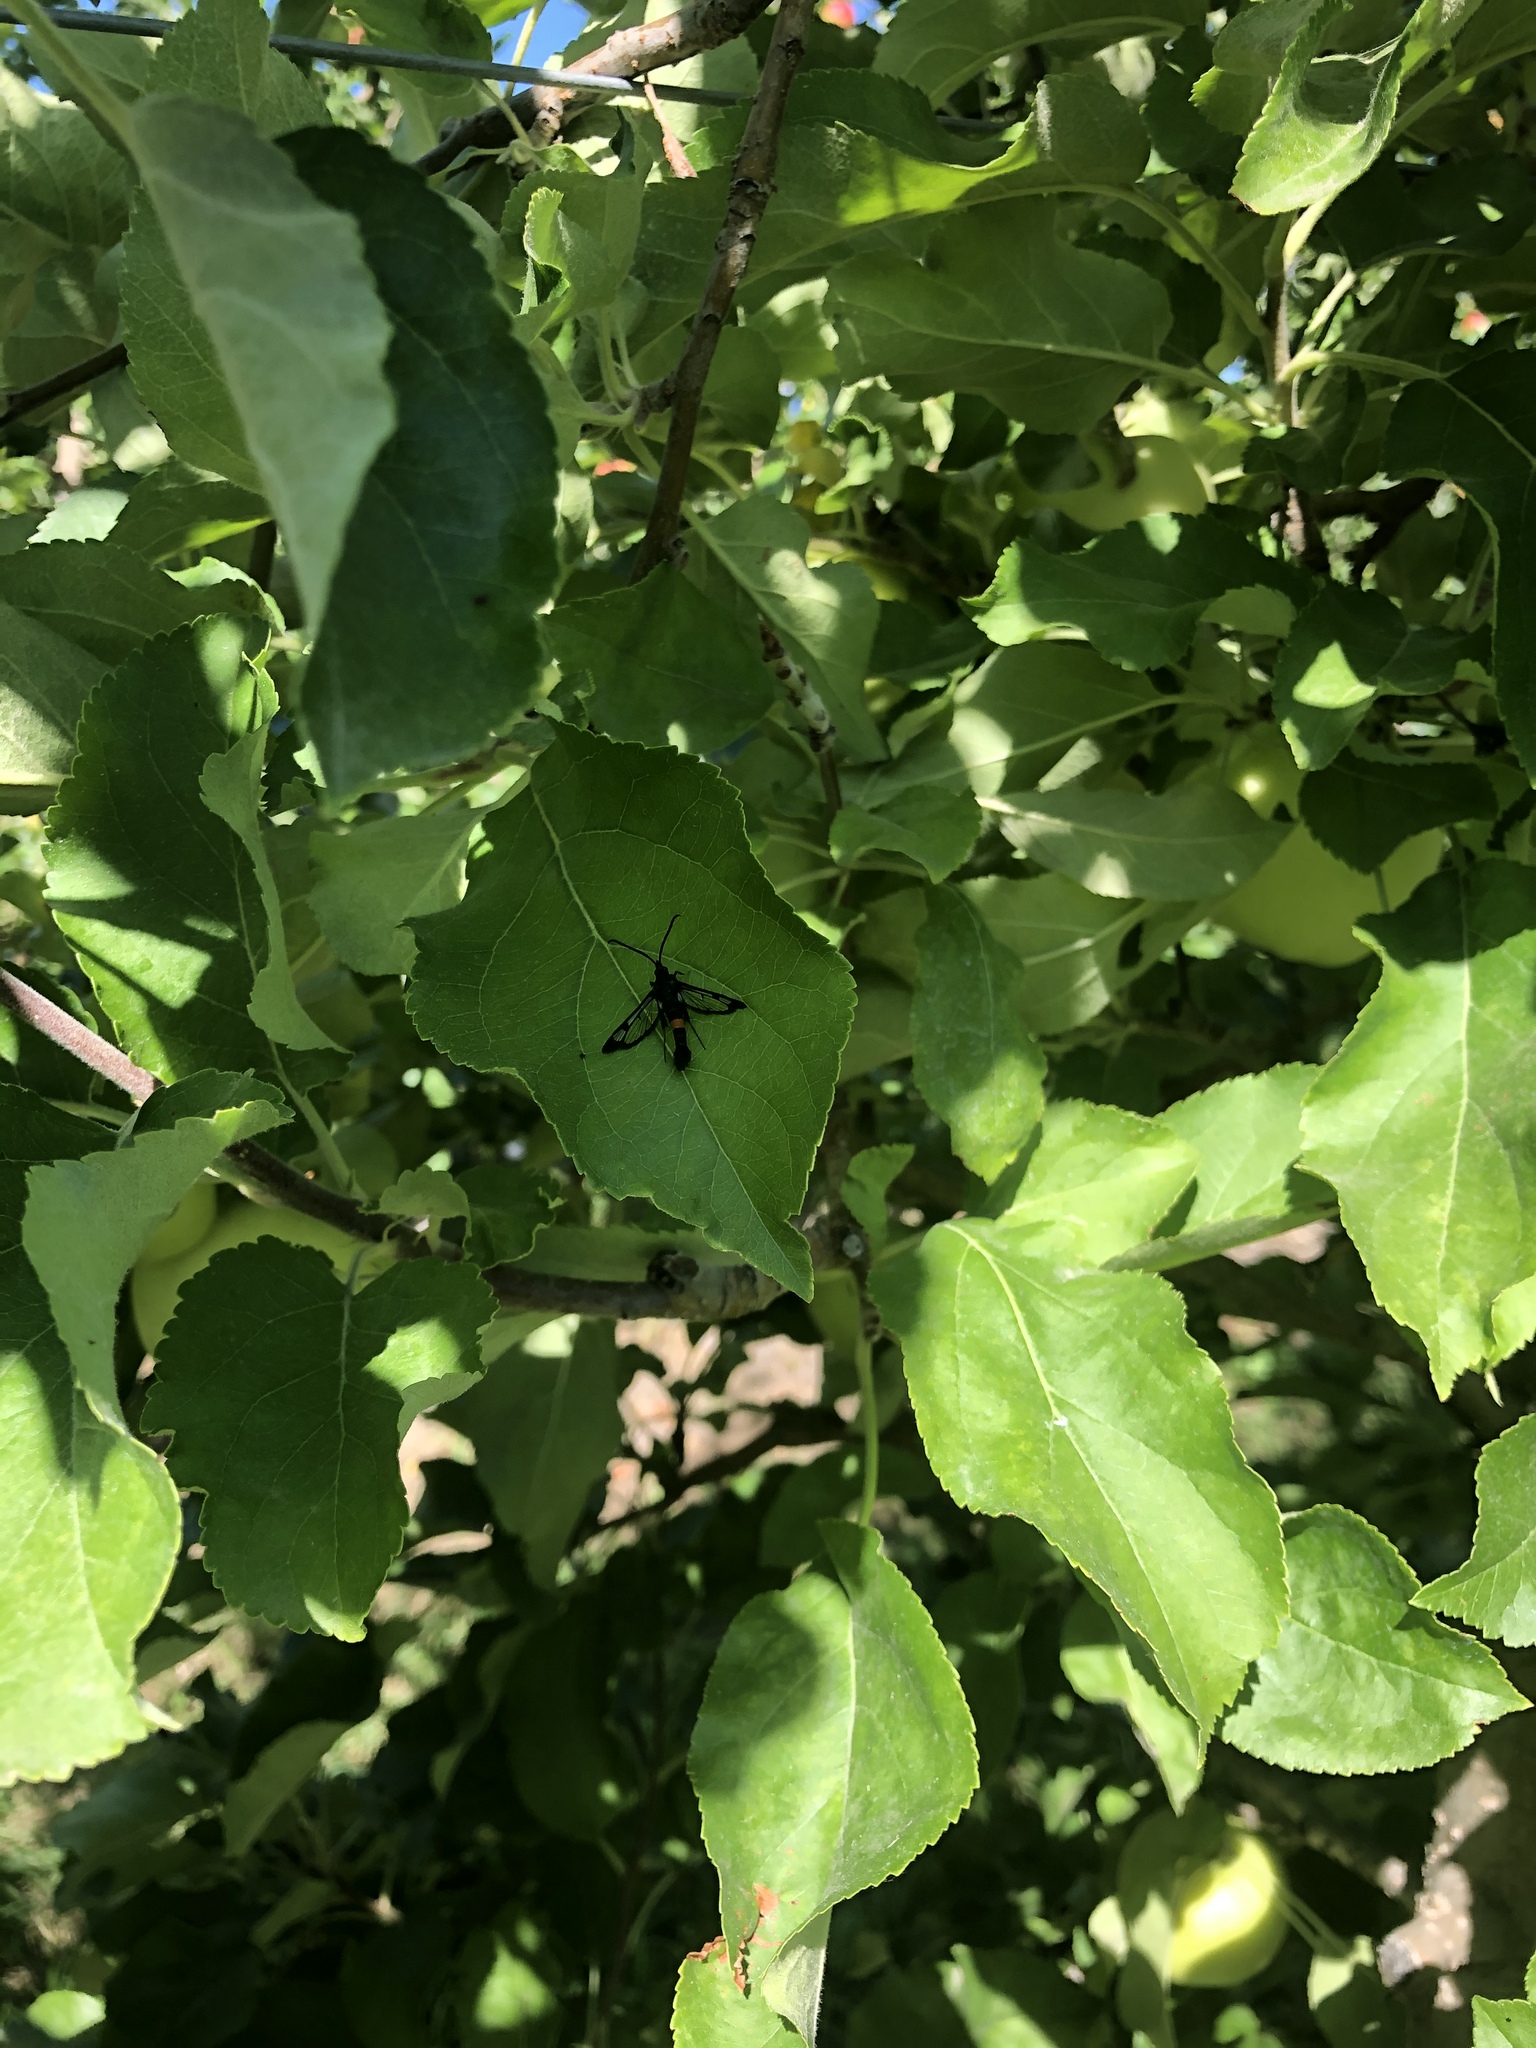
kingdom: Animalia
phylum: Arthropoda
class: Insecta
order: Lepidoptera
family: Sesiidae
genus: Synanthedon
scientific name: Synanthedon myopaeformis
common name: Red-belted clearwing
